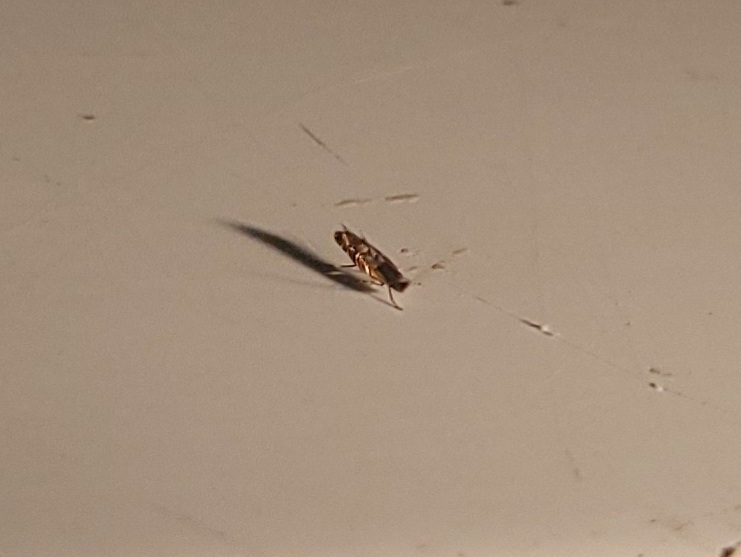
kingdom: Animalia
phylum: Arthropoda
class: Insecta
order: Lepidoptera
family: Gracillariidae
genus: Macrosaccus
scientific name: Macrosaccus robiniella
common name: Leaf blotch miner moth
